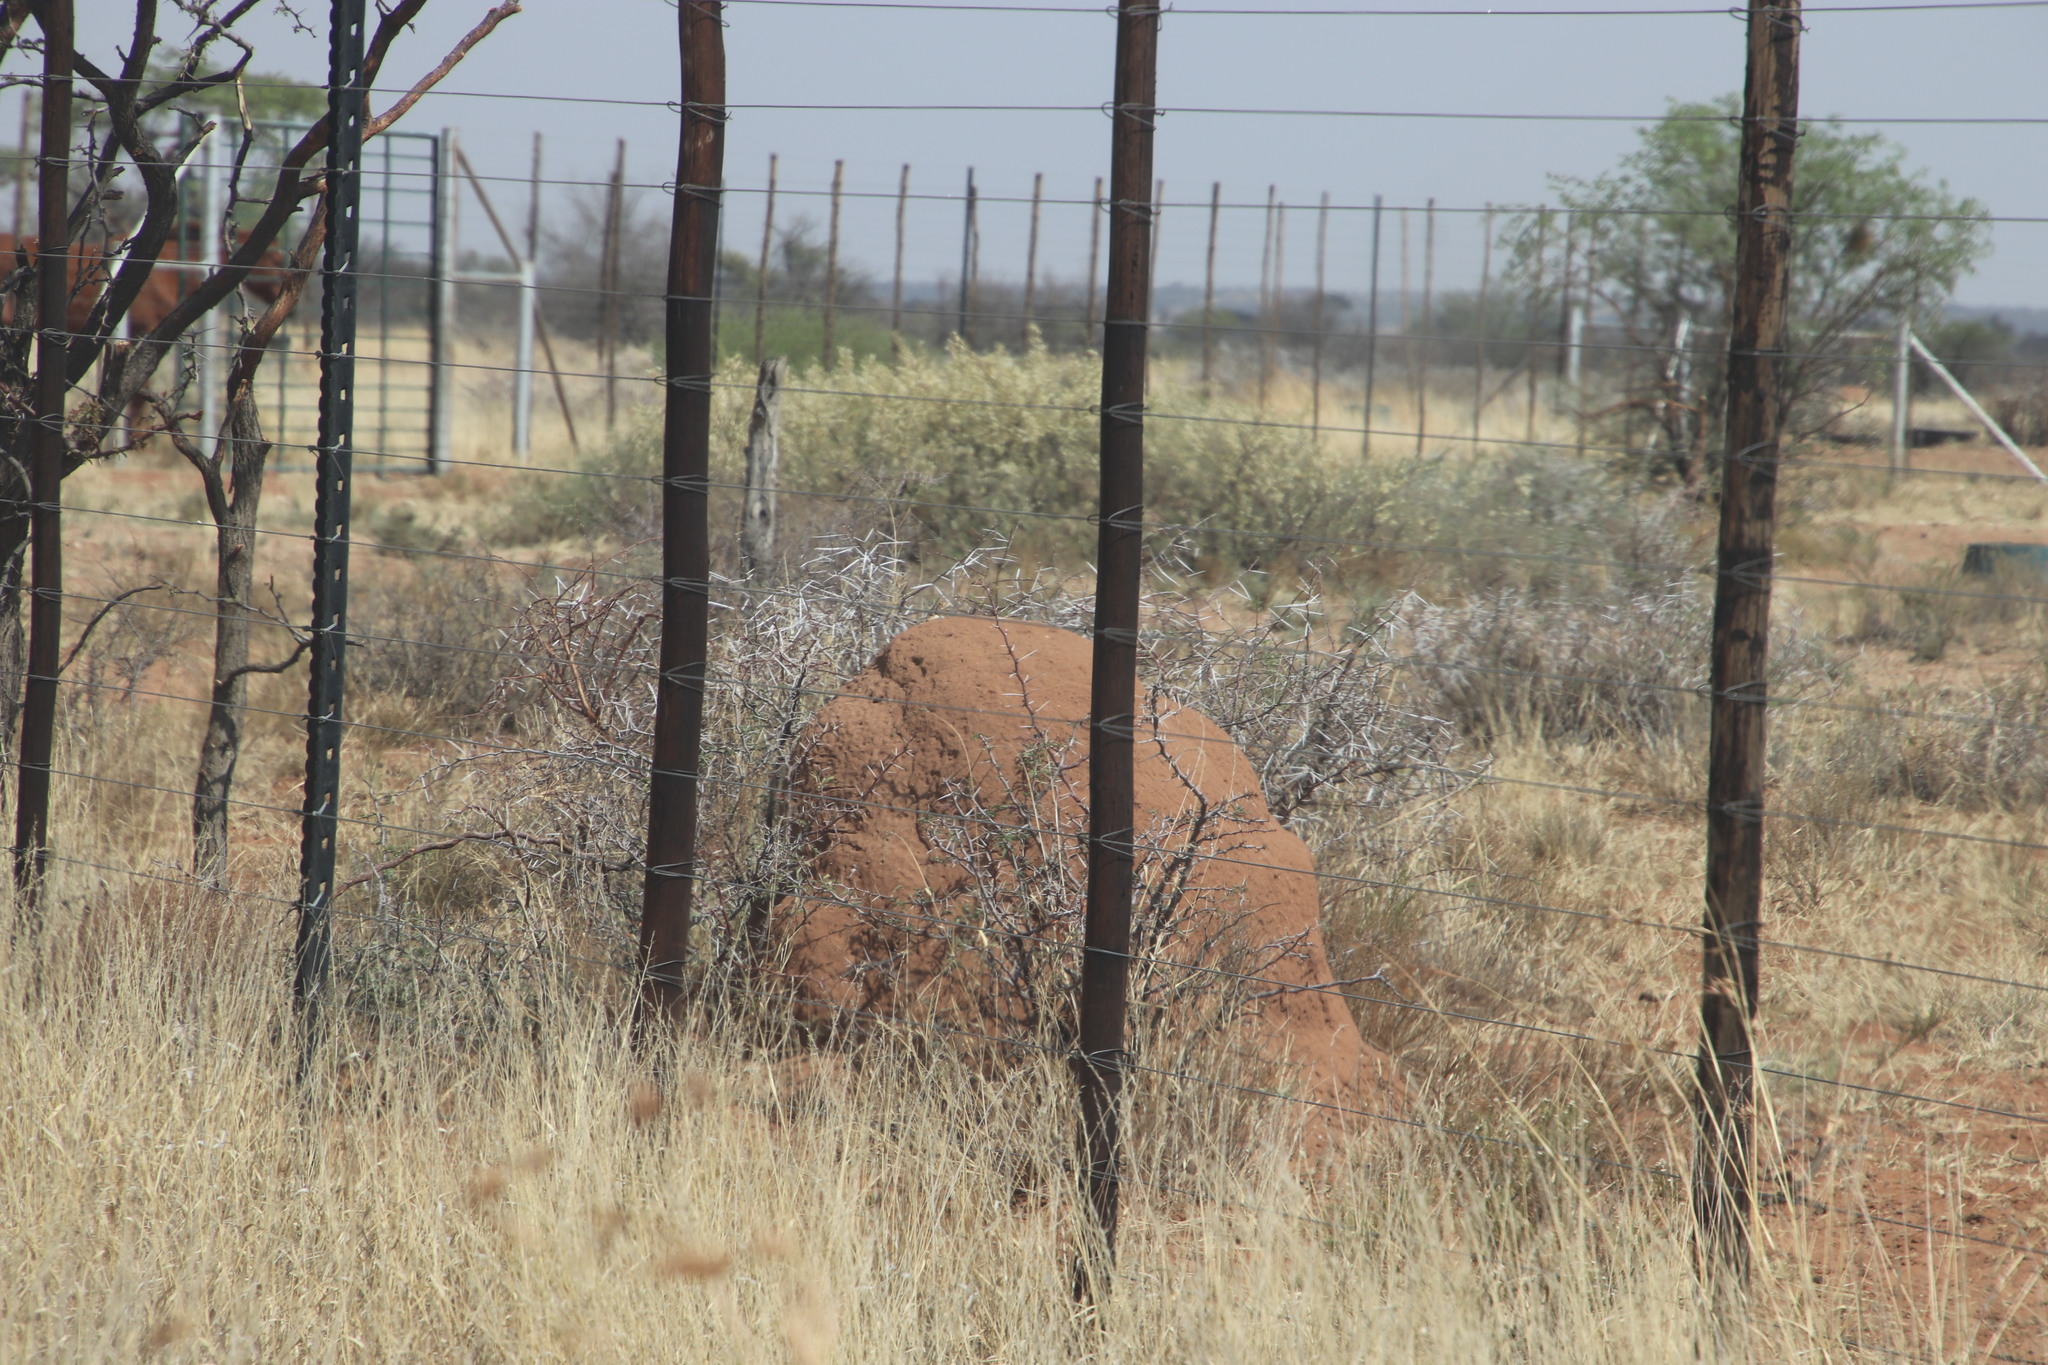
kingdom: Animalia
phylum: Arthropoda
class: Insecta
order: Blattodea
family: Termitidae
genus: Trinervitermes
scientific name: Trinervitermes trinervoides
